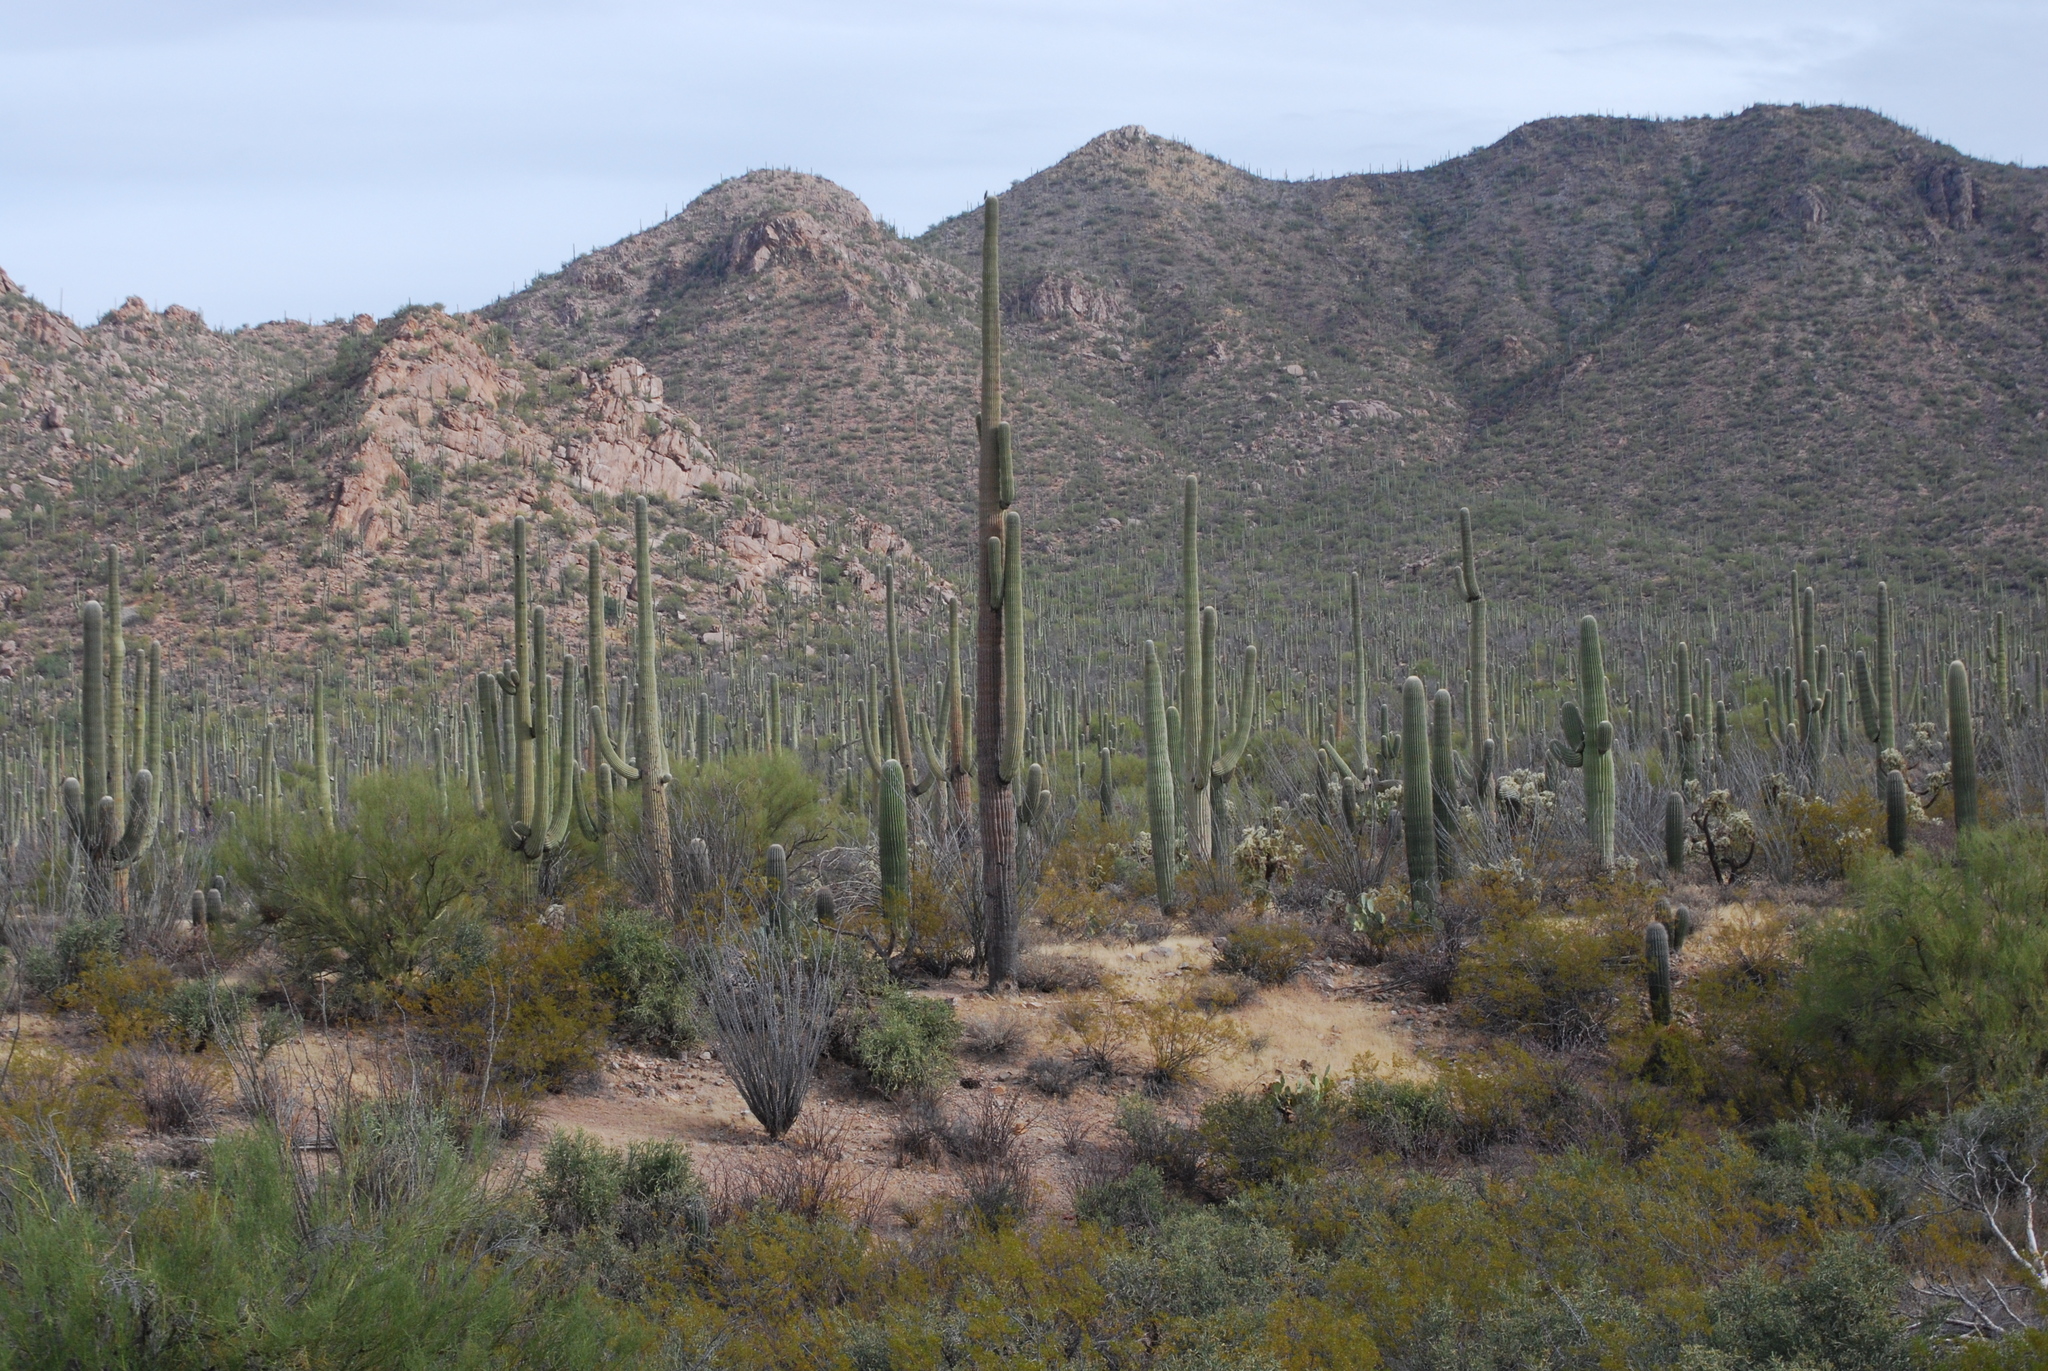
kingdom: Plantae
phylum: Tracheophyta
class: Magnoliopsida
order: Caryophyllales
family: Cactaceae
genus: Carnegiea
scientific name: Carnegiea gigantea
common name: Saguaro
